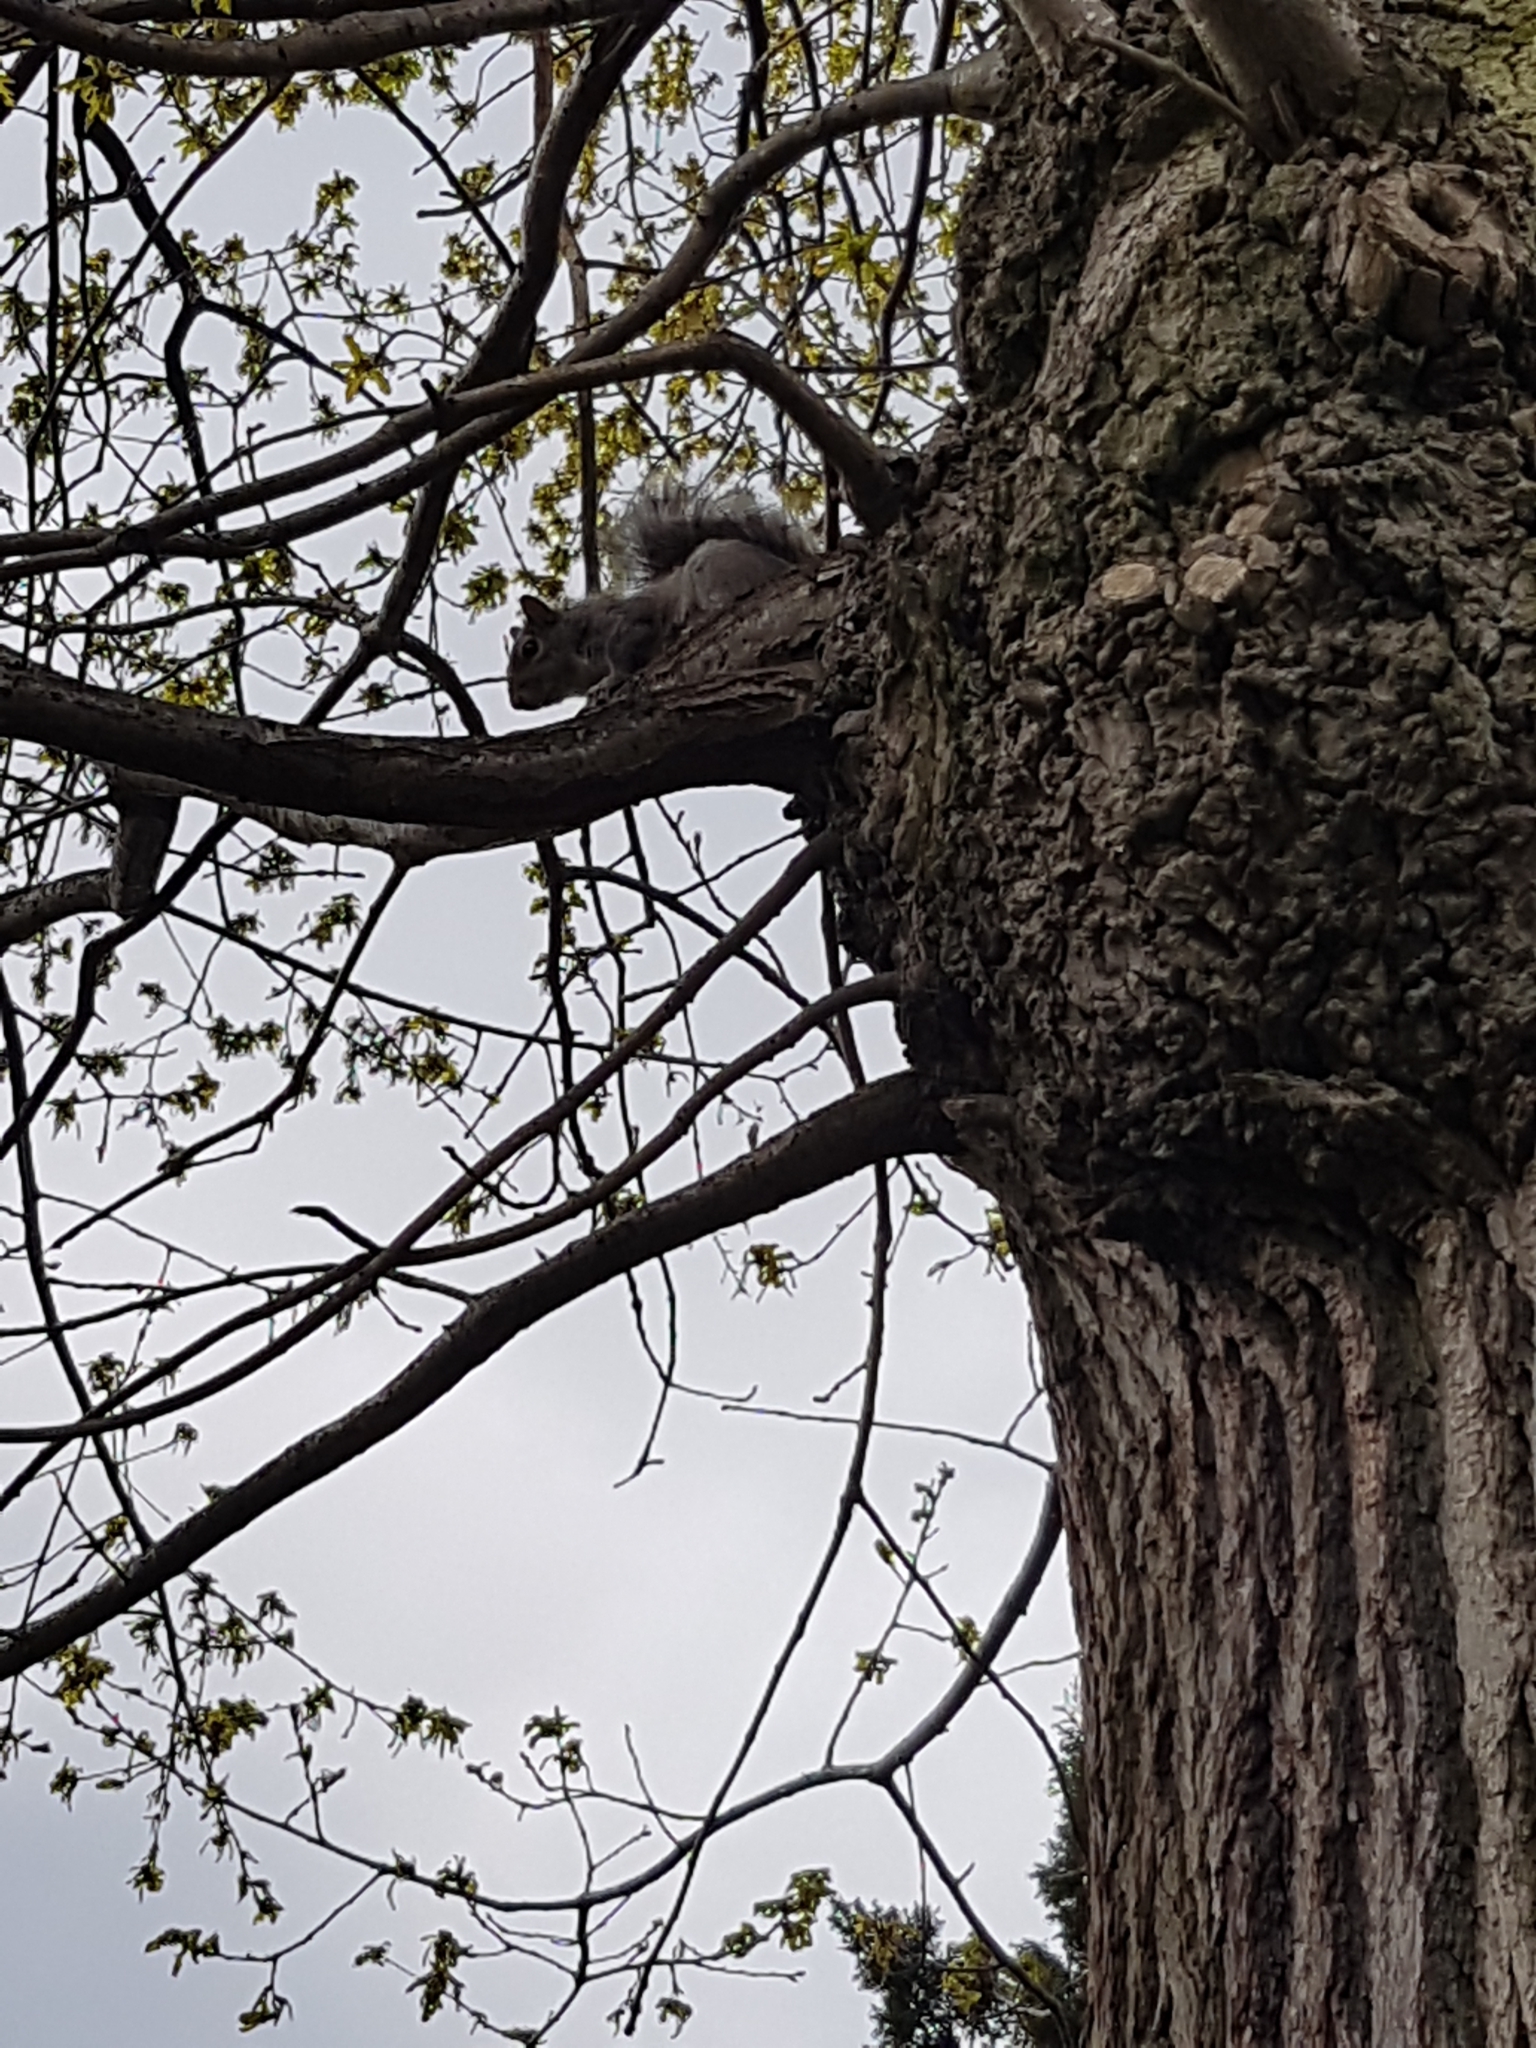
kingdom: Animalia
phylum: Chordata
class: Mammalia
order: Rodentia
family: Sciuridae
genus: Sciurus
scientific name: Sciurus carolinensis
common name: Eastern gray squirrel
